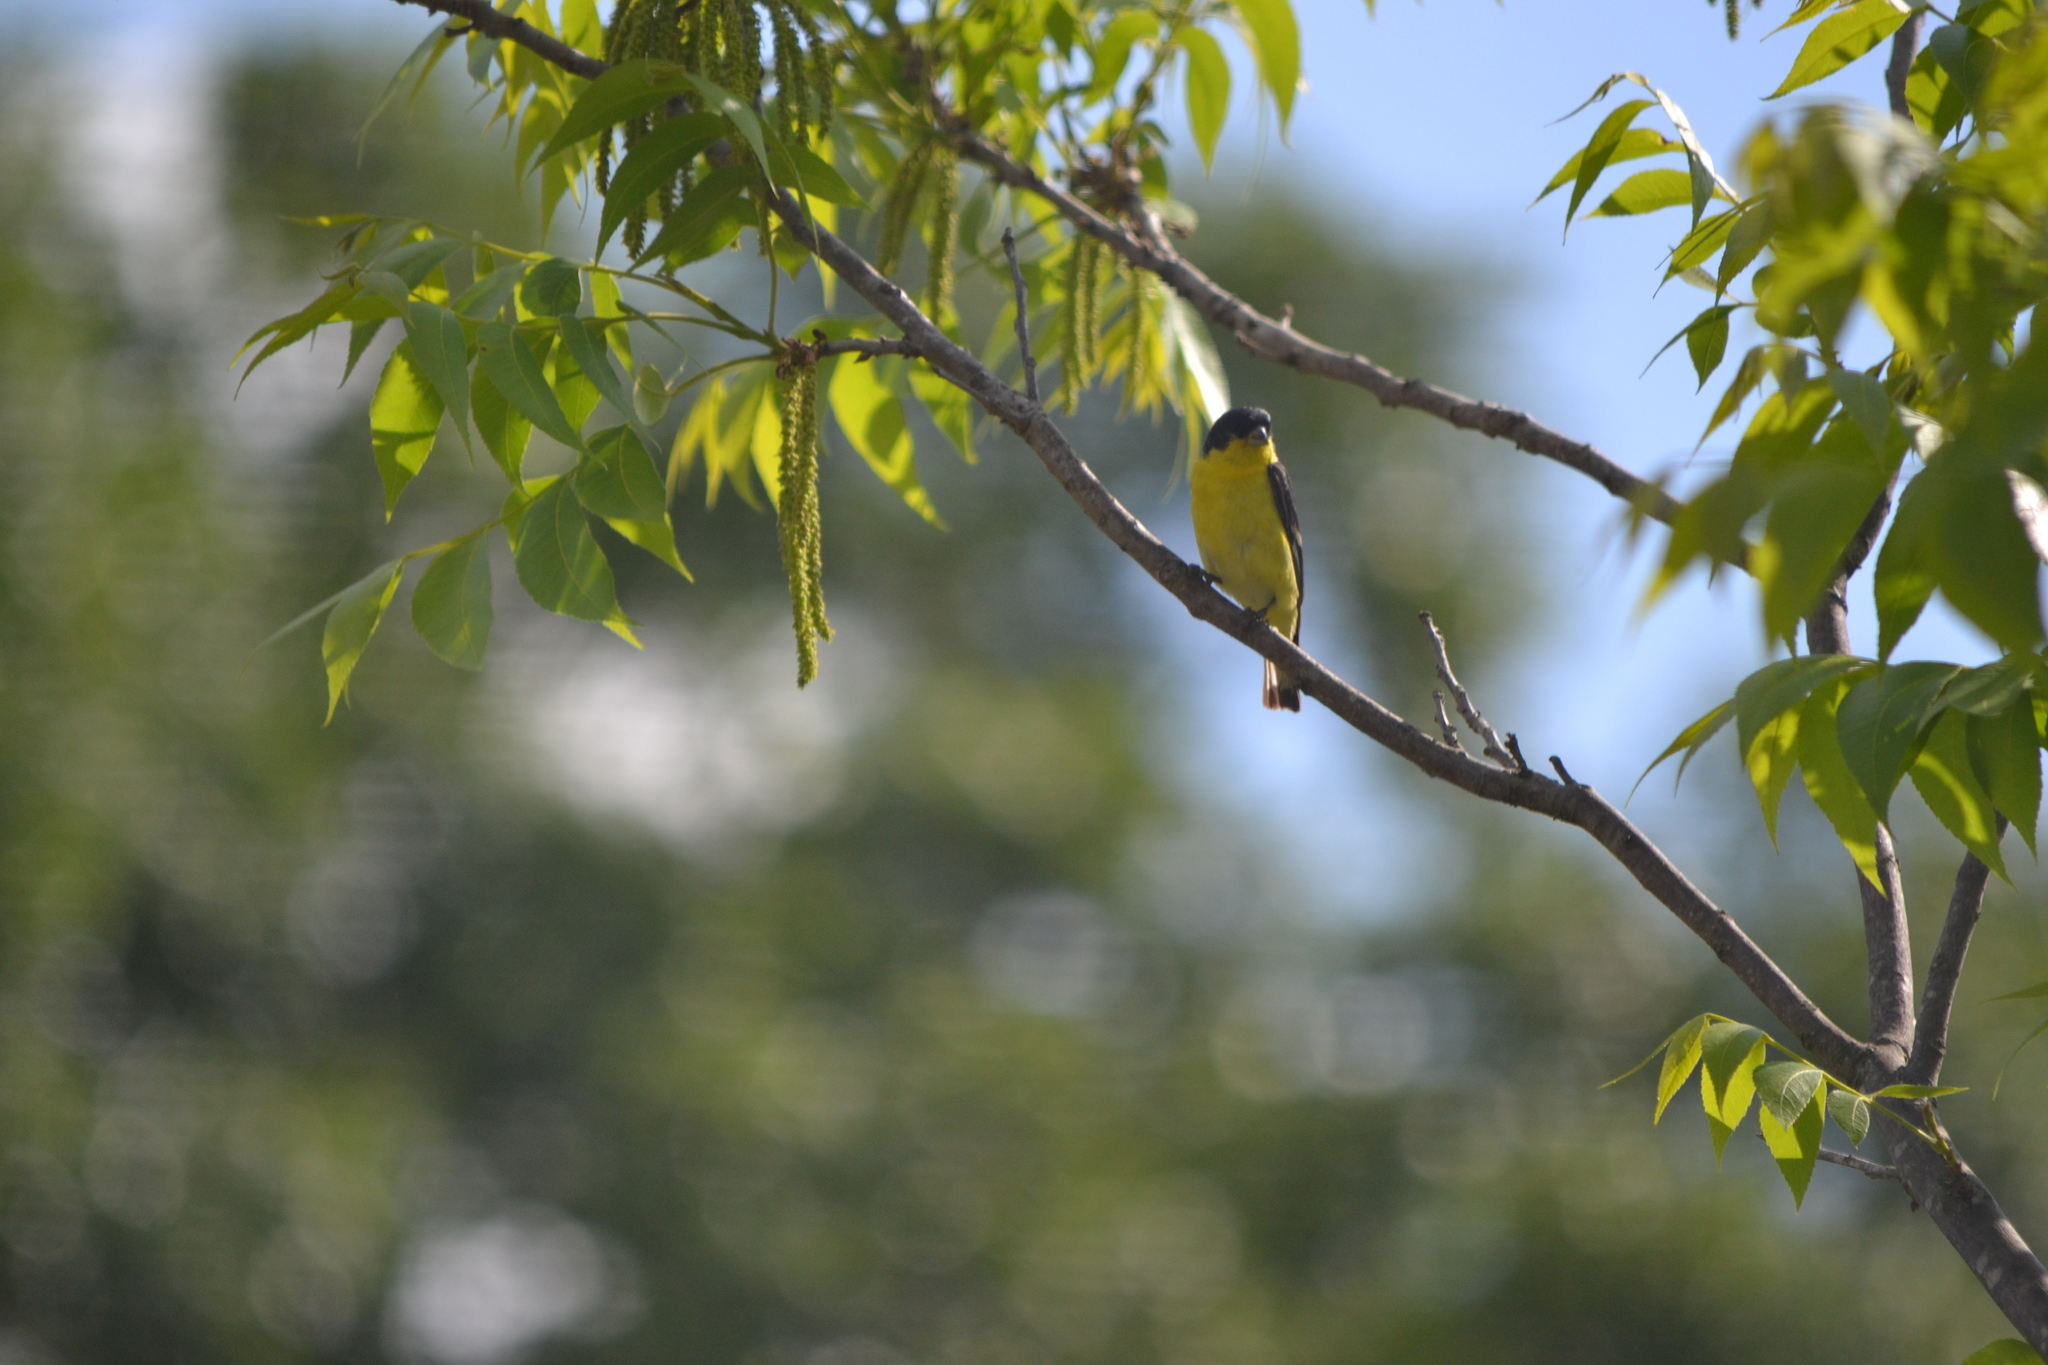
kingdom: Animalia
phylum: Chordata
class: Aves
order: Passeriformes
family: Fringillidae
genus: Spinus
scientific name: Spinus psaltria
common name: Lesser goldfinch
